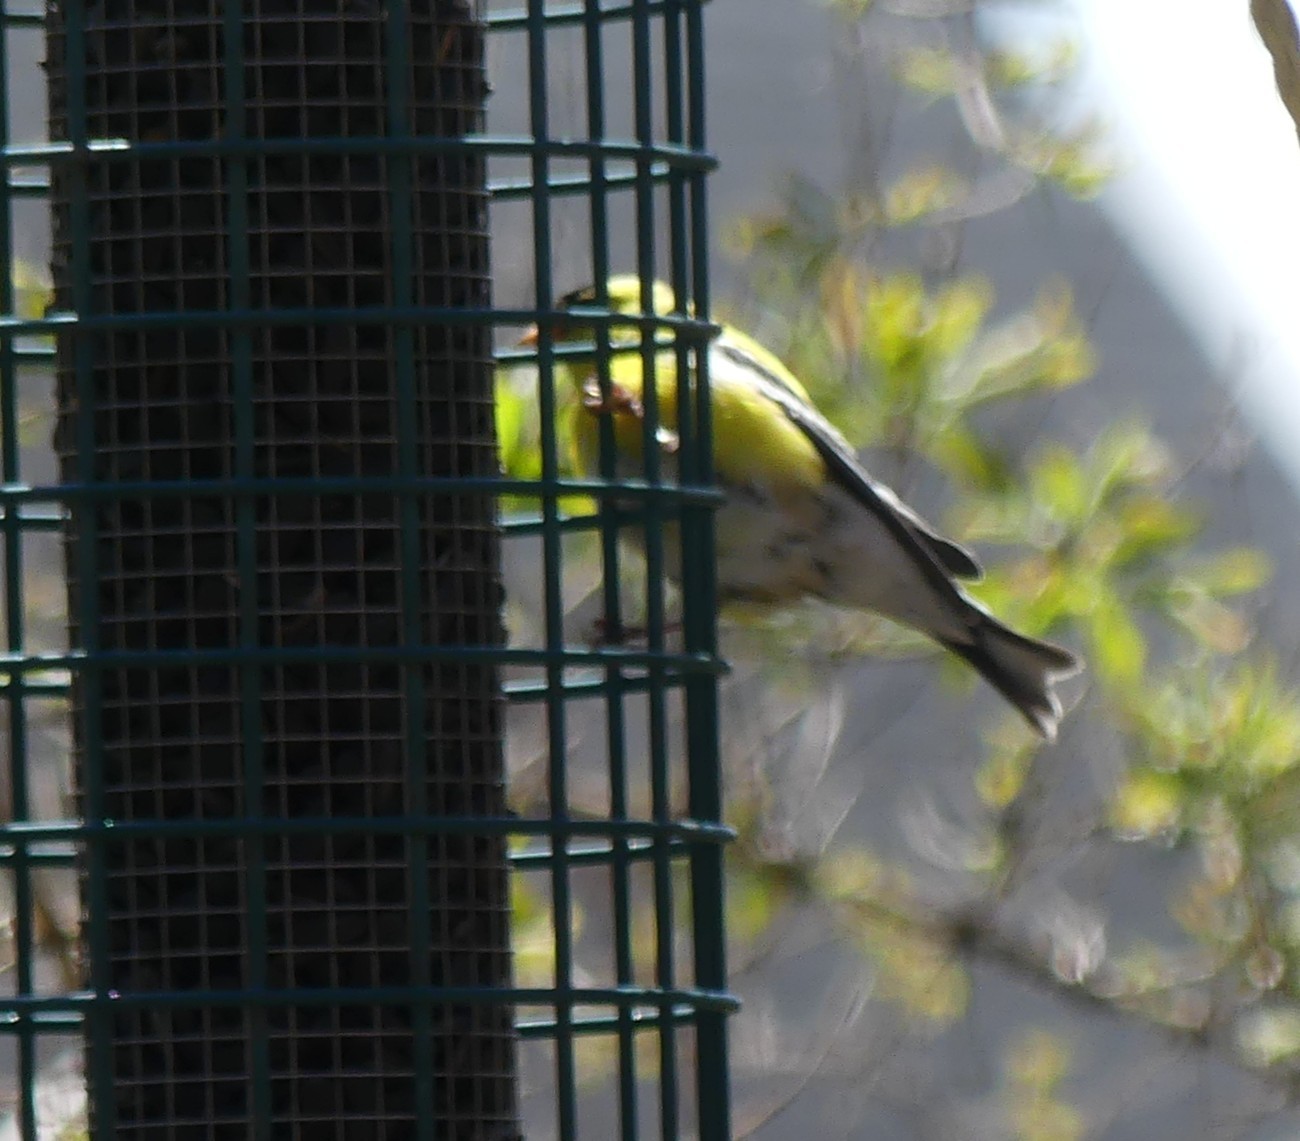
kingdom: Animalia
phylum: Chordata
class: Aves
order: Passeriformes
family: Fringillidae
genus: Spinus
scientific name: Spinus tristis
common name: American goldfinch
